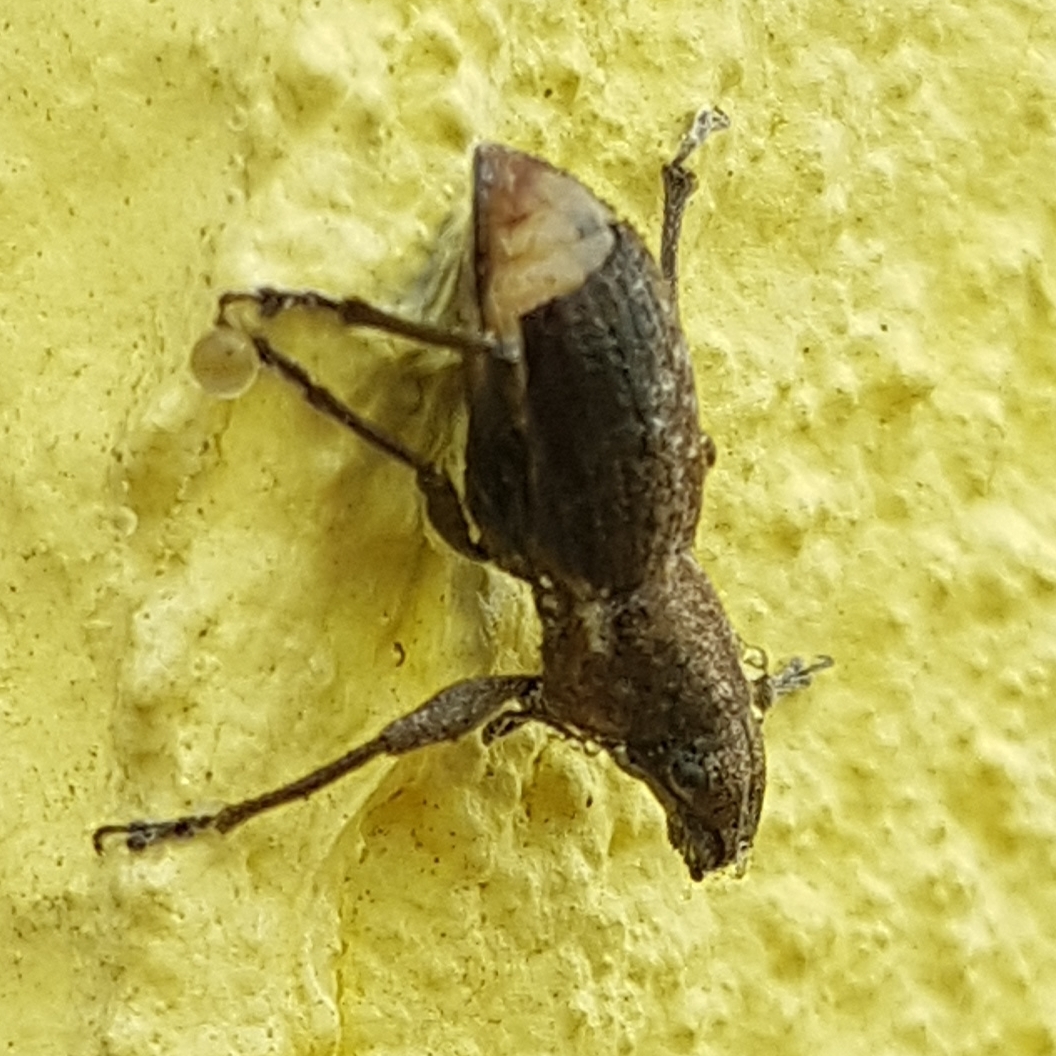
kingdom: Animalia
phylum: Arthropoda
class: Insecta
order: Coleoptera
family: Curculionidae
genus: Naupactus
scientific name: Naupactus cervinus
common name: Fuller rose beetle
